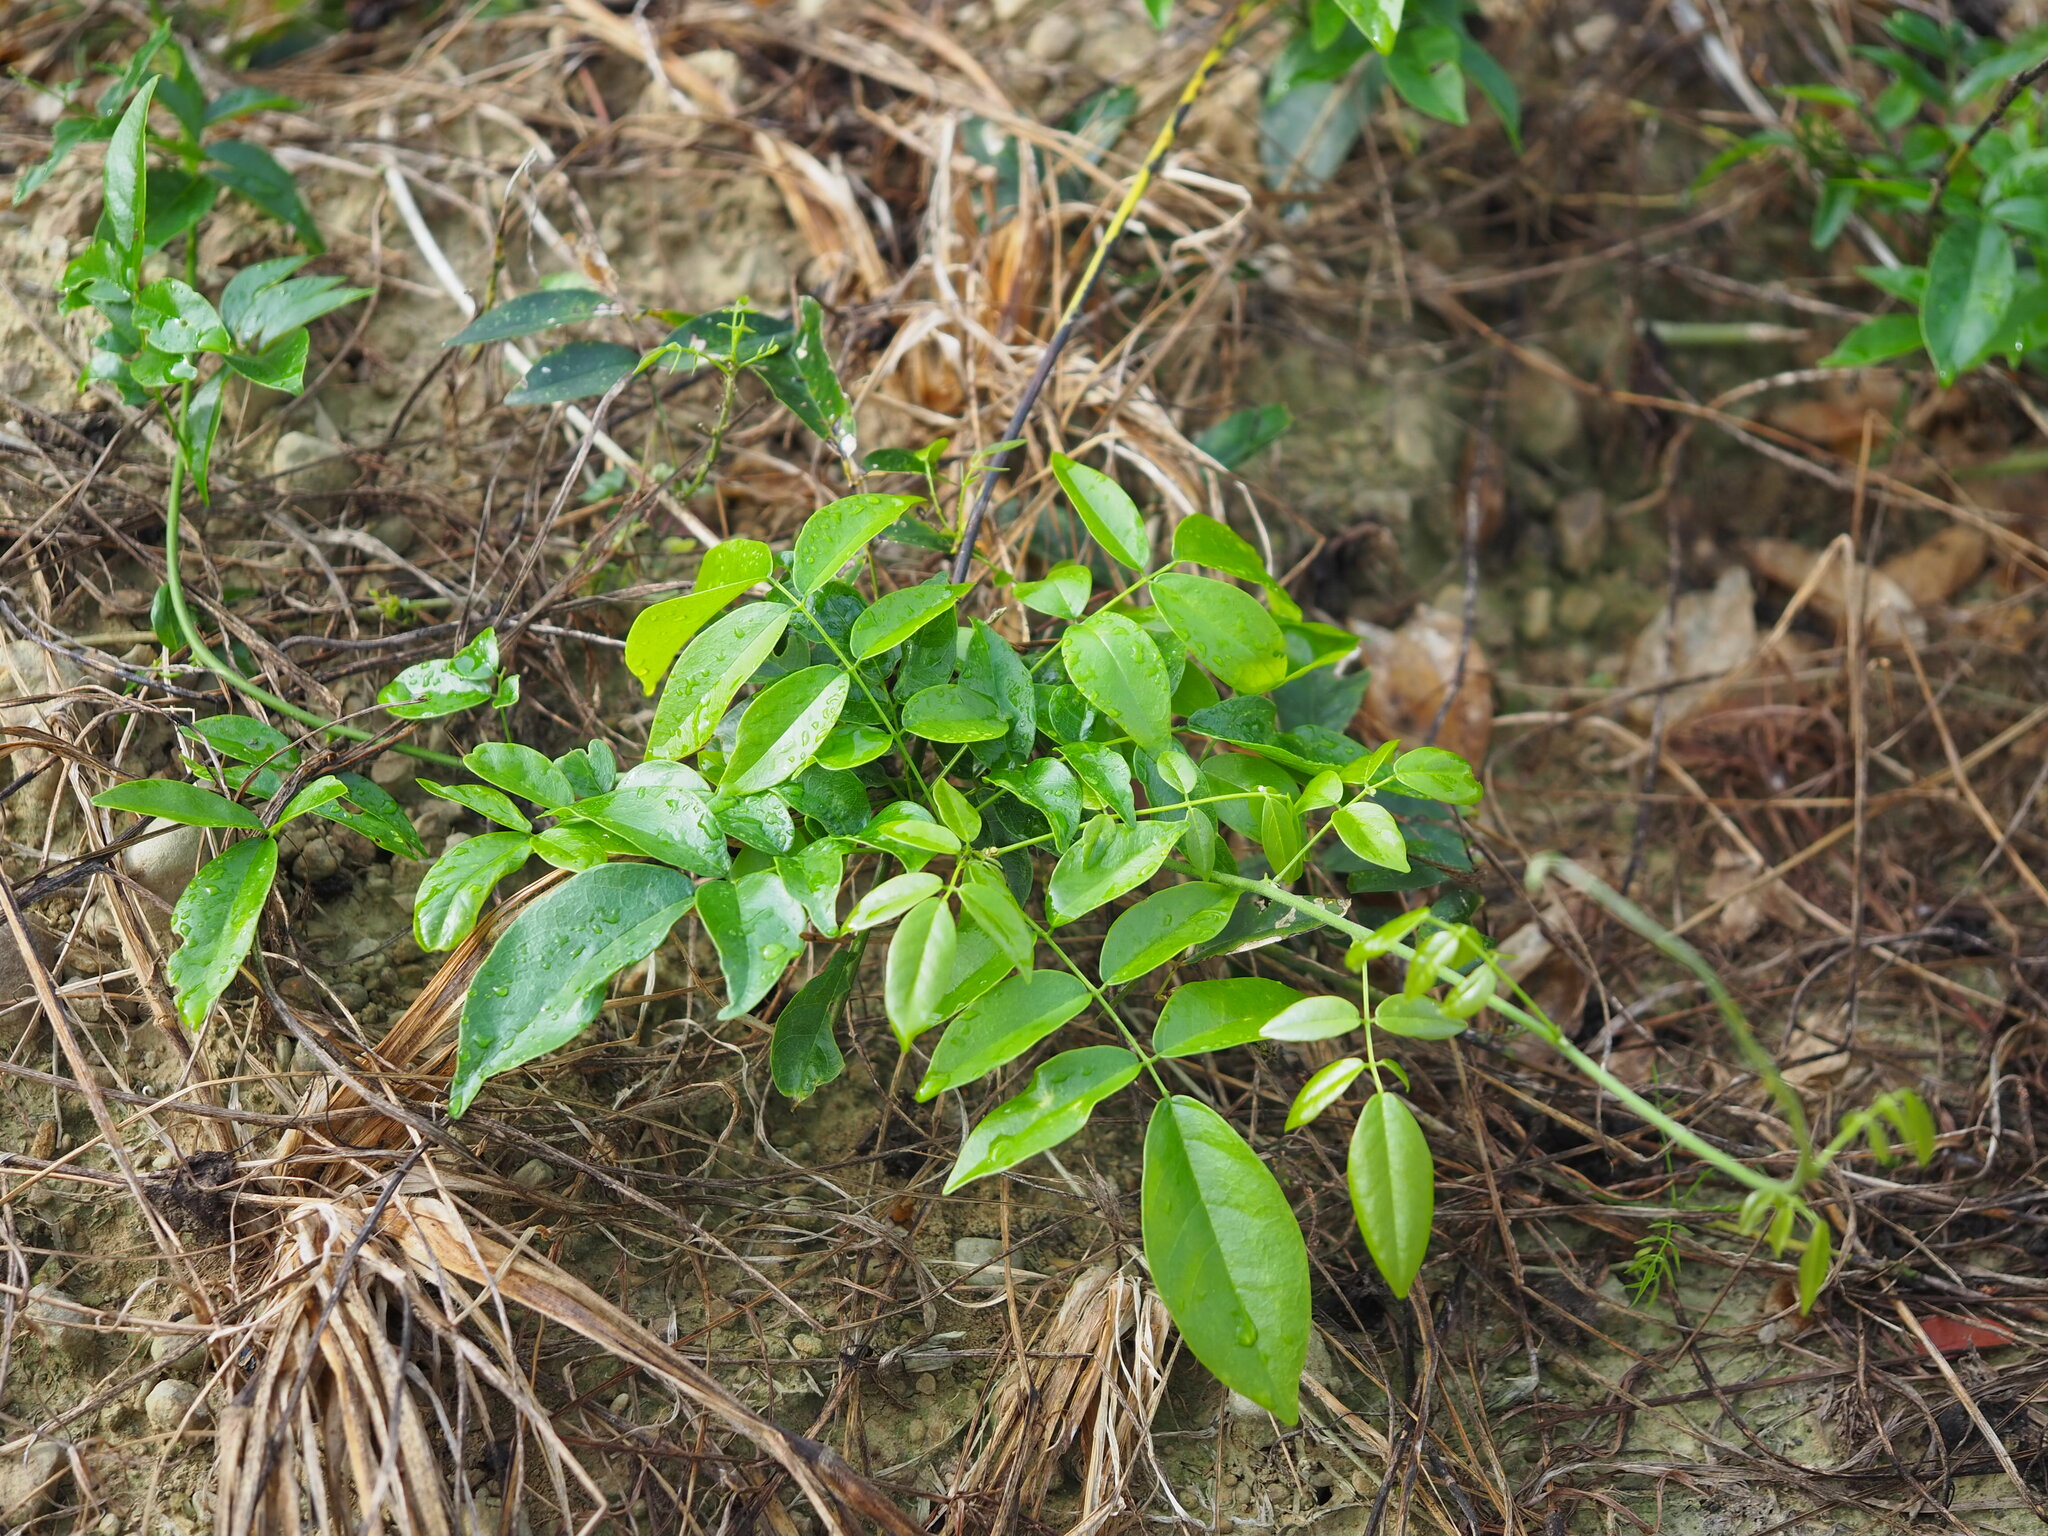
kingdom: Plantae
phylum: Tracheophyta
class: Magnoliopsida
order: Fabales
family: Fabaceae
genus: Wisteriopsis
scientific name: Wisteriopsis reticulata
